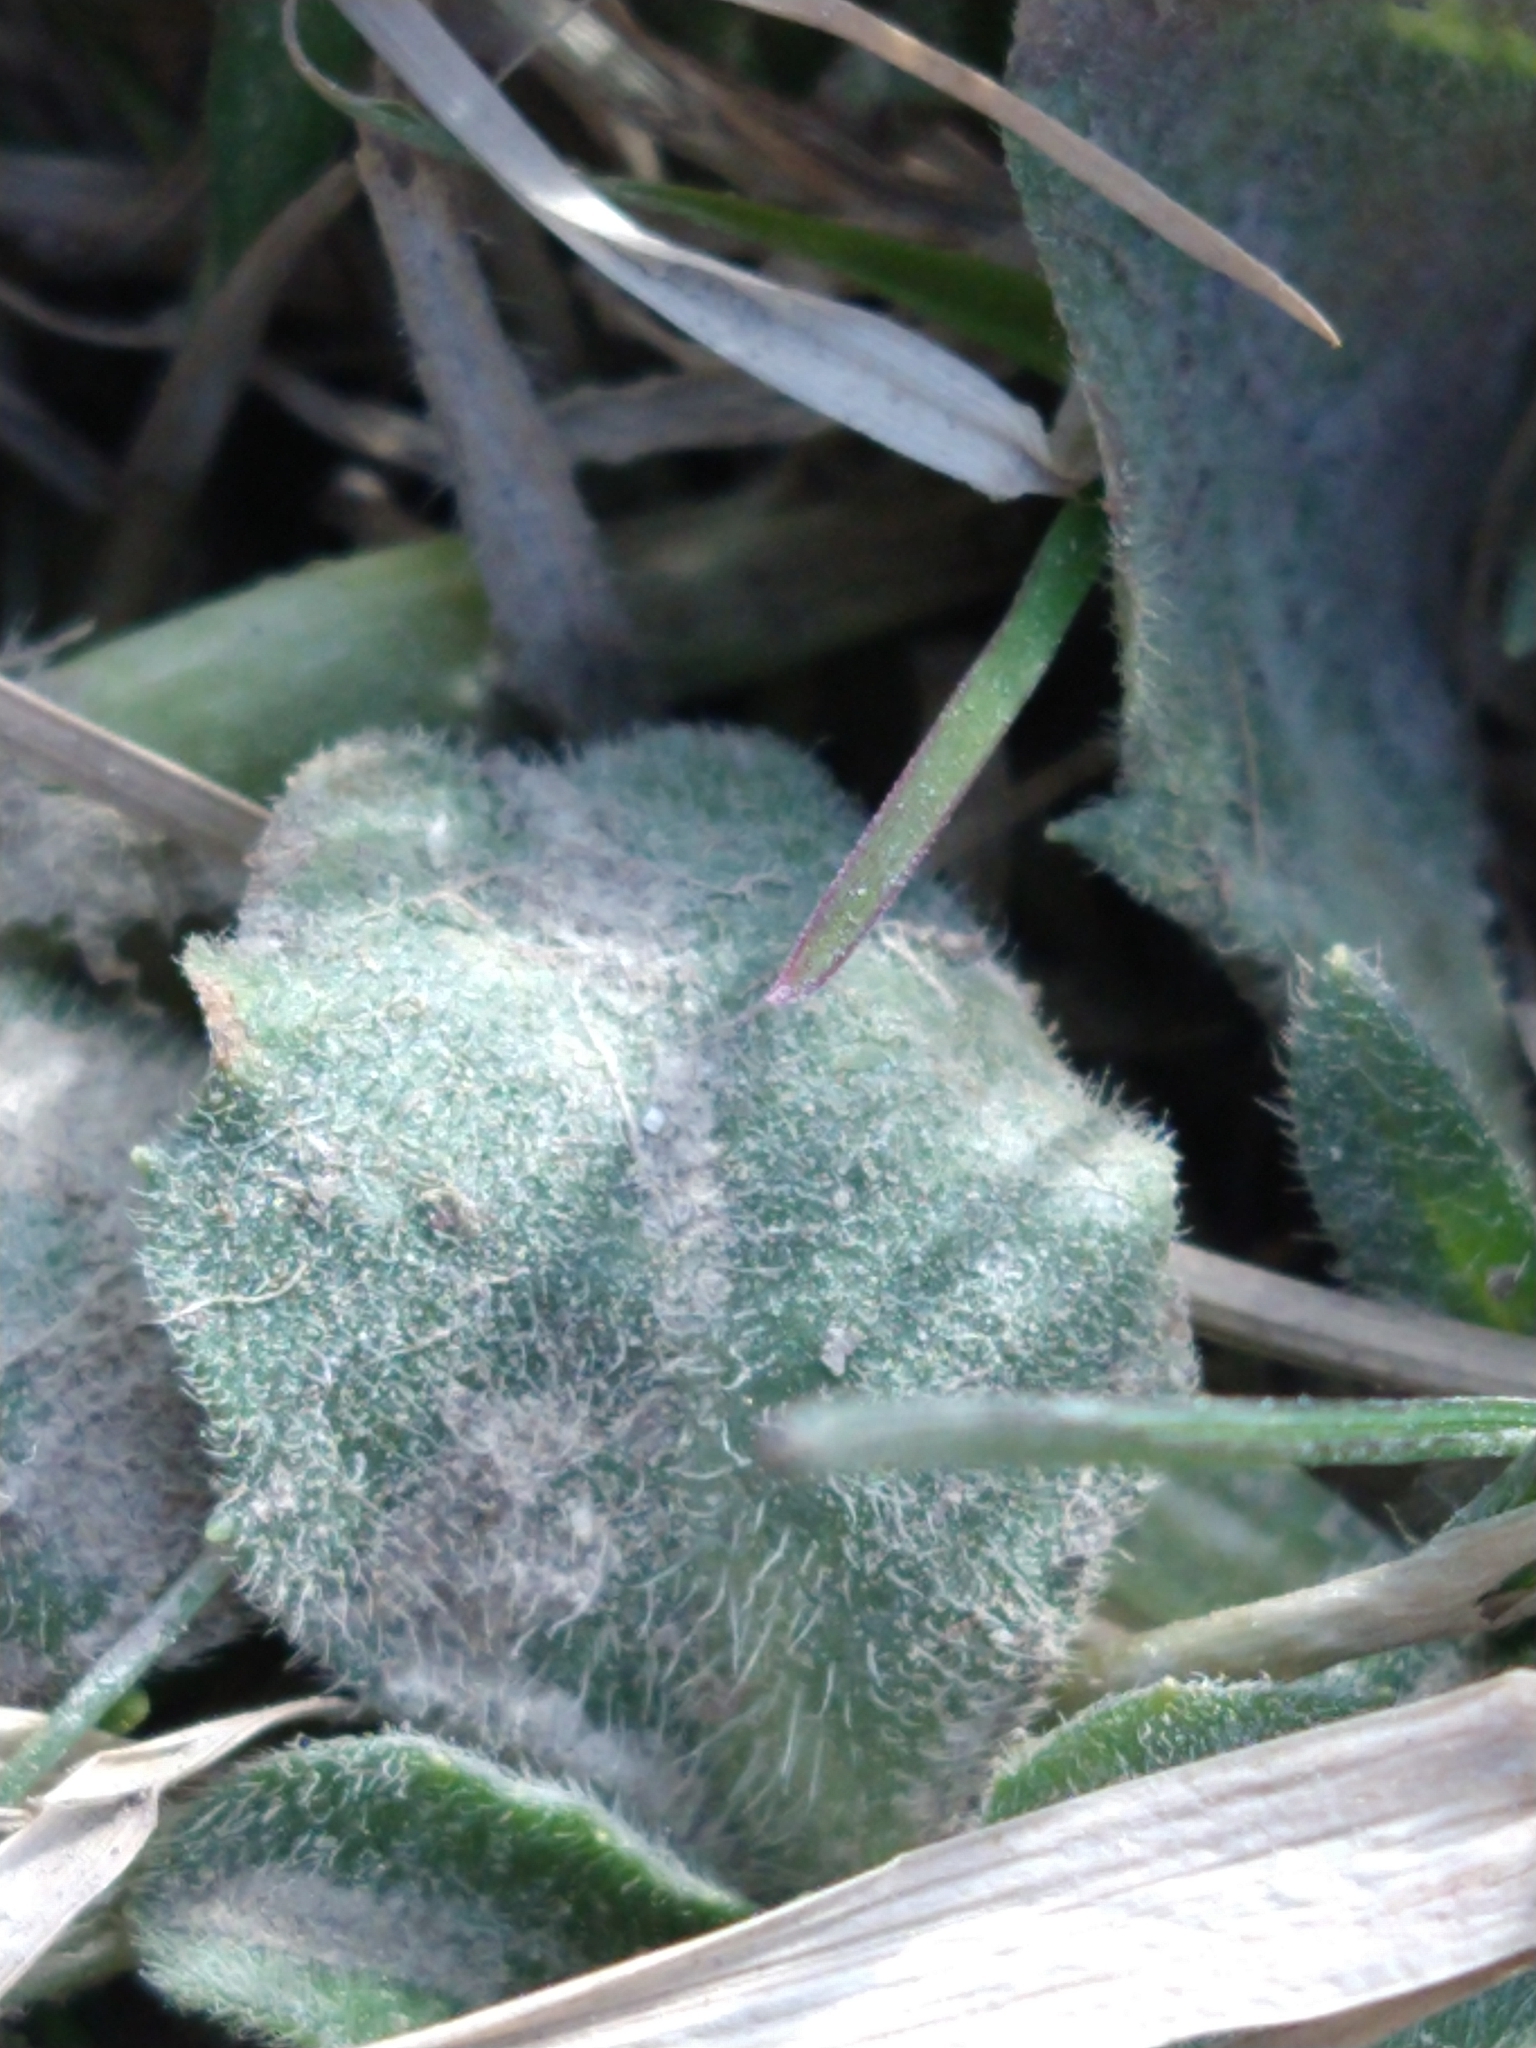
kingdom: Plantae
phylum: Tracheophyta
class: Magnoliopsida
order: Asterales
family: Asteraceae
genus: Bellis
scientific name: Bellis perennis
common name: Lawndaisy
